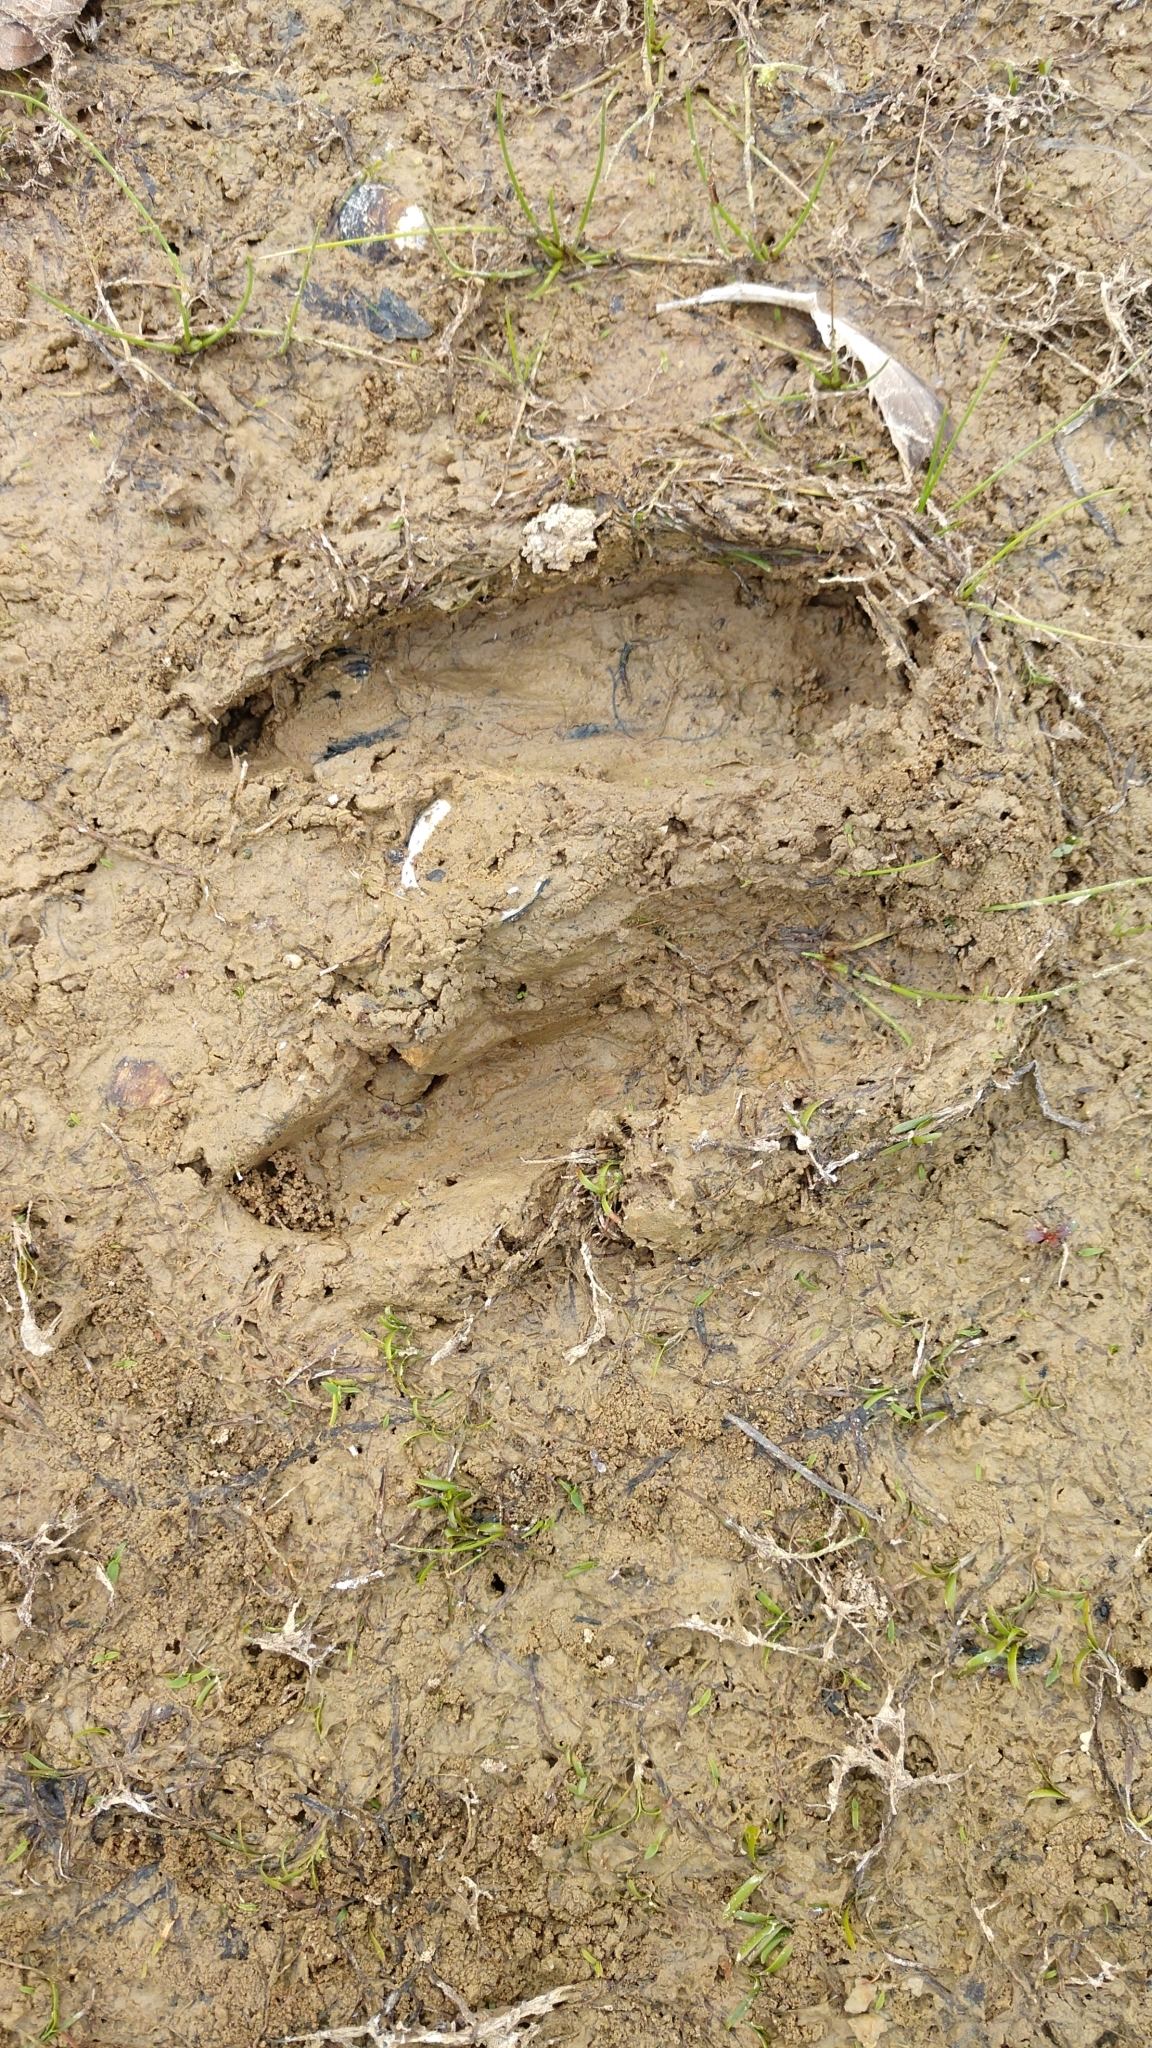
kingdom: Animalia
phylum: Chordata
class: Mammalia
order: Artiodactyla
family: Cervidae
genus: Odocoileus
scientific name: Odocoileus virginianus
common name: White-tailed deer
